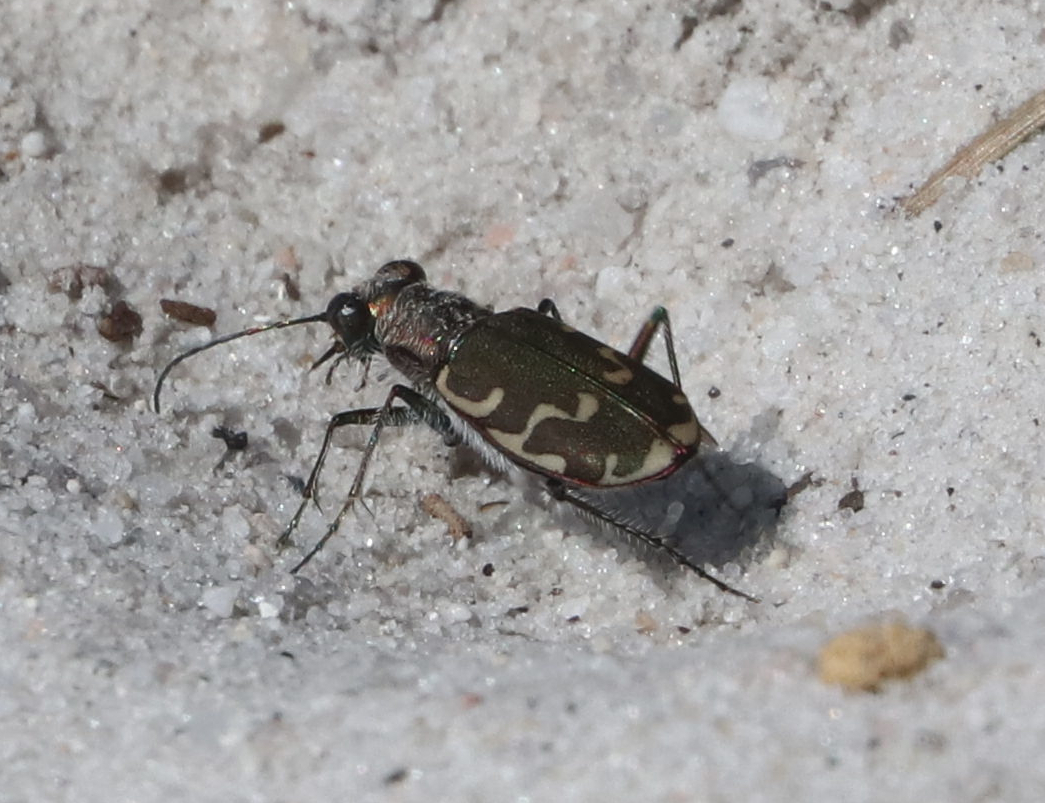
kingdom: Animalia
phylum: Arthropoda
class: Insecta
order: Coleoptera
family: Carabidae
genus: Cicindela
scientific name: Cicindela repanda
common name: Bronzed tiger beetle
